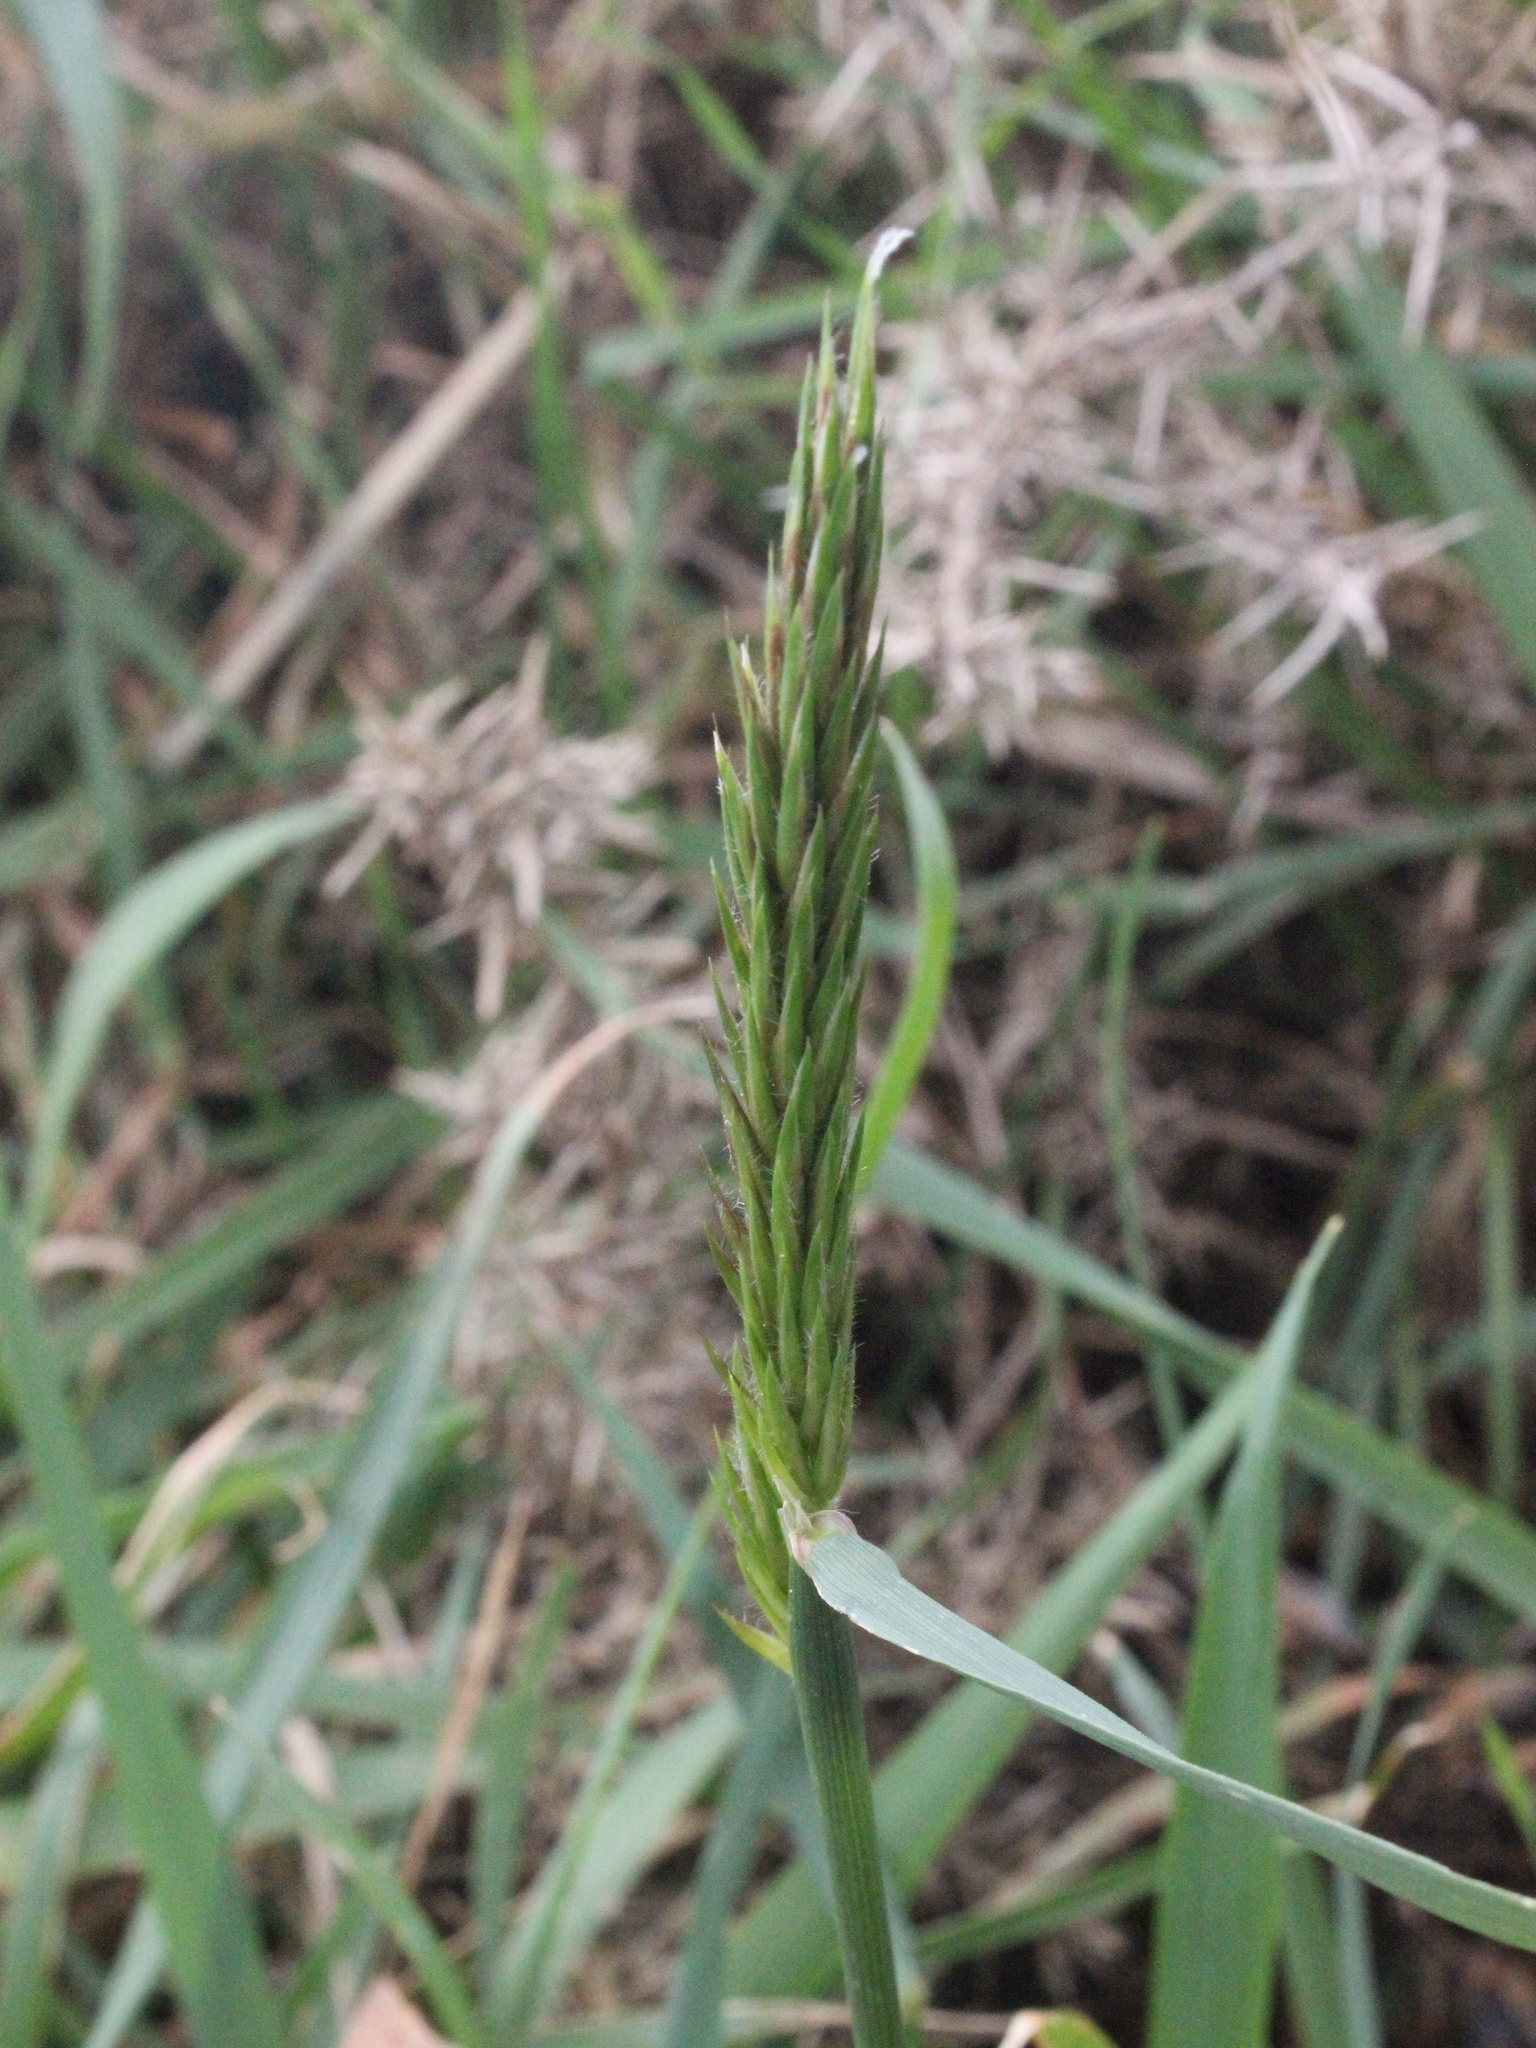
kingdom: Plantae
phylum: Tracheophyta
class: Liliopsida
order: Poales
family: Poaceae
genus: Anthoxanthum
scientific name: Anthoxanthum odoratum
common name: Sweet vernalgrass
